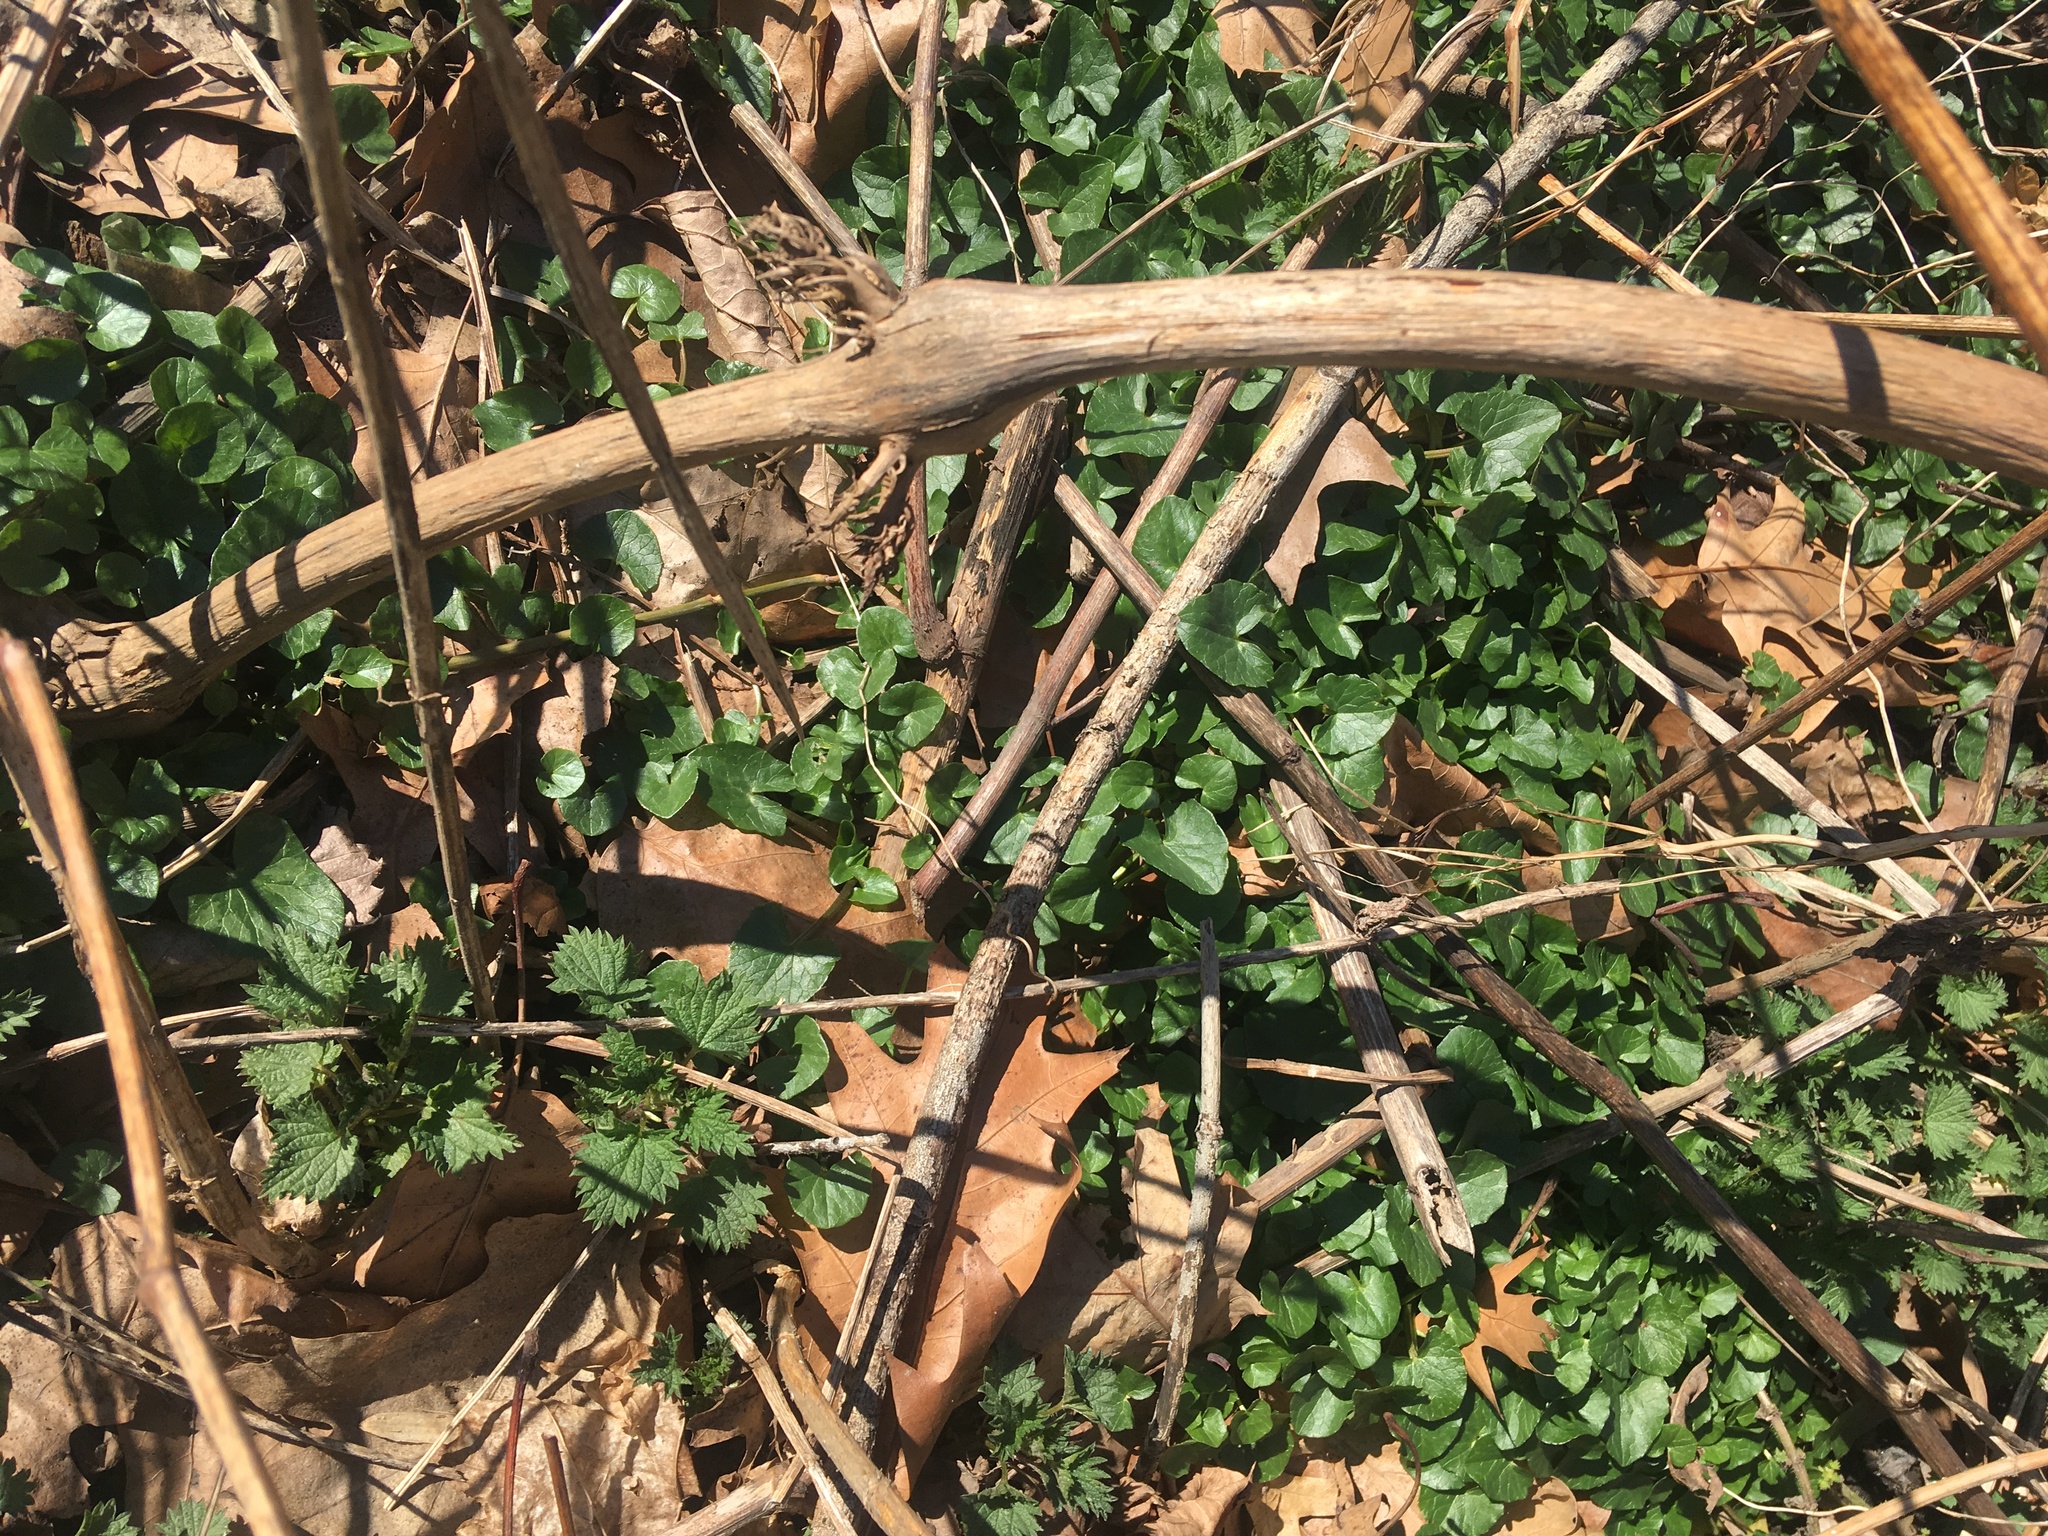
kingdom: Plantae
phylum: Tracheophyta
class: Magnoliopsida
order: Ranunculales
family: Ranunculaceae
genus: Ficaria
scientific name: Ficaria verna
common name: Lesser celandine
